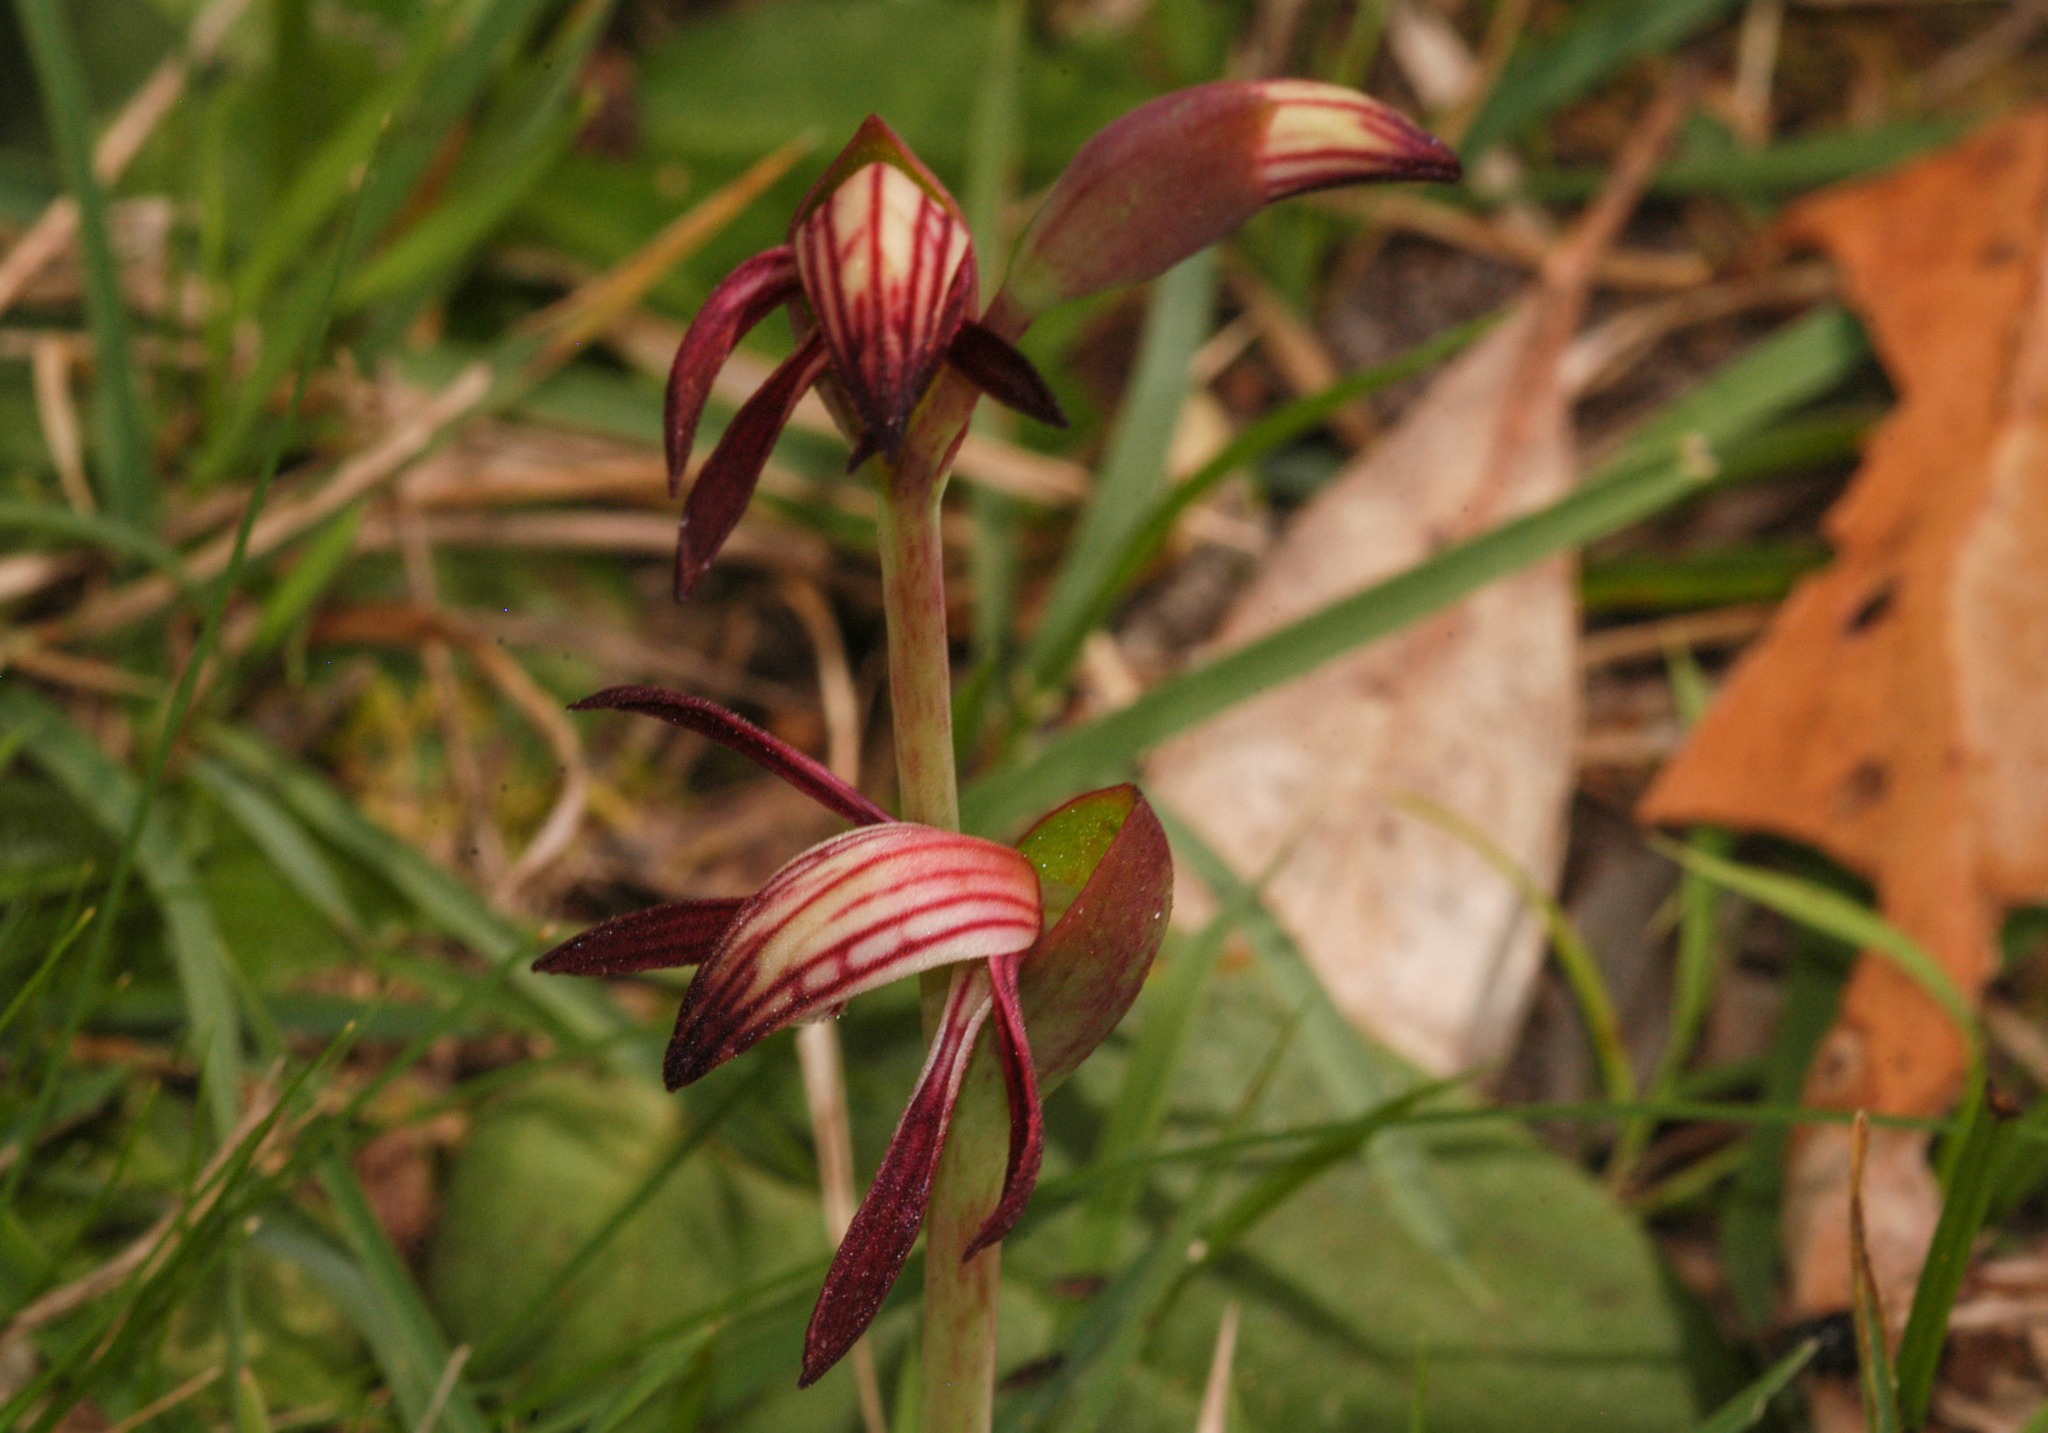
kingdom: Plantae
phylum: Tracheophyta
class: Liliopsida
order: Asparagales
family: Orchidaceae
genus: Pyrorchis
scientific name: Pyrorchis nigricans
